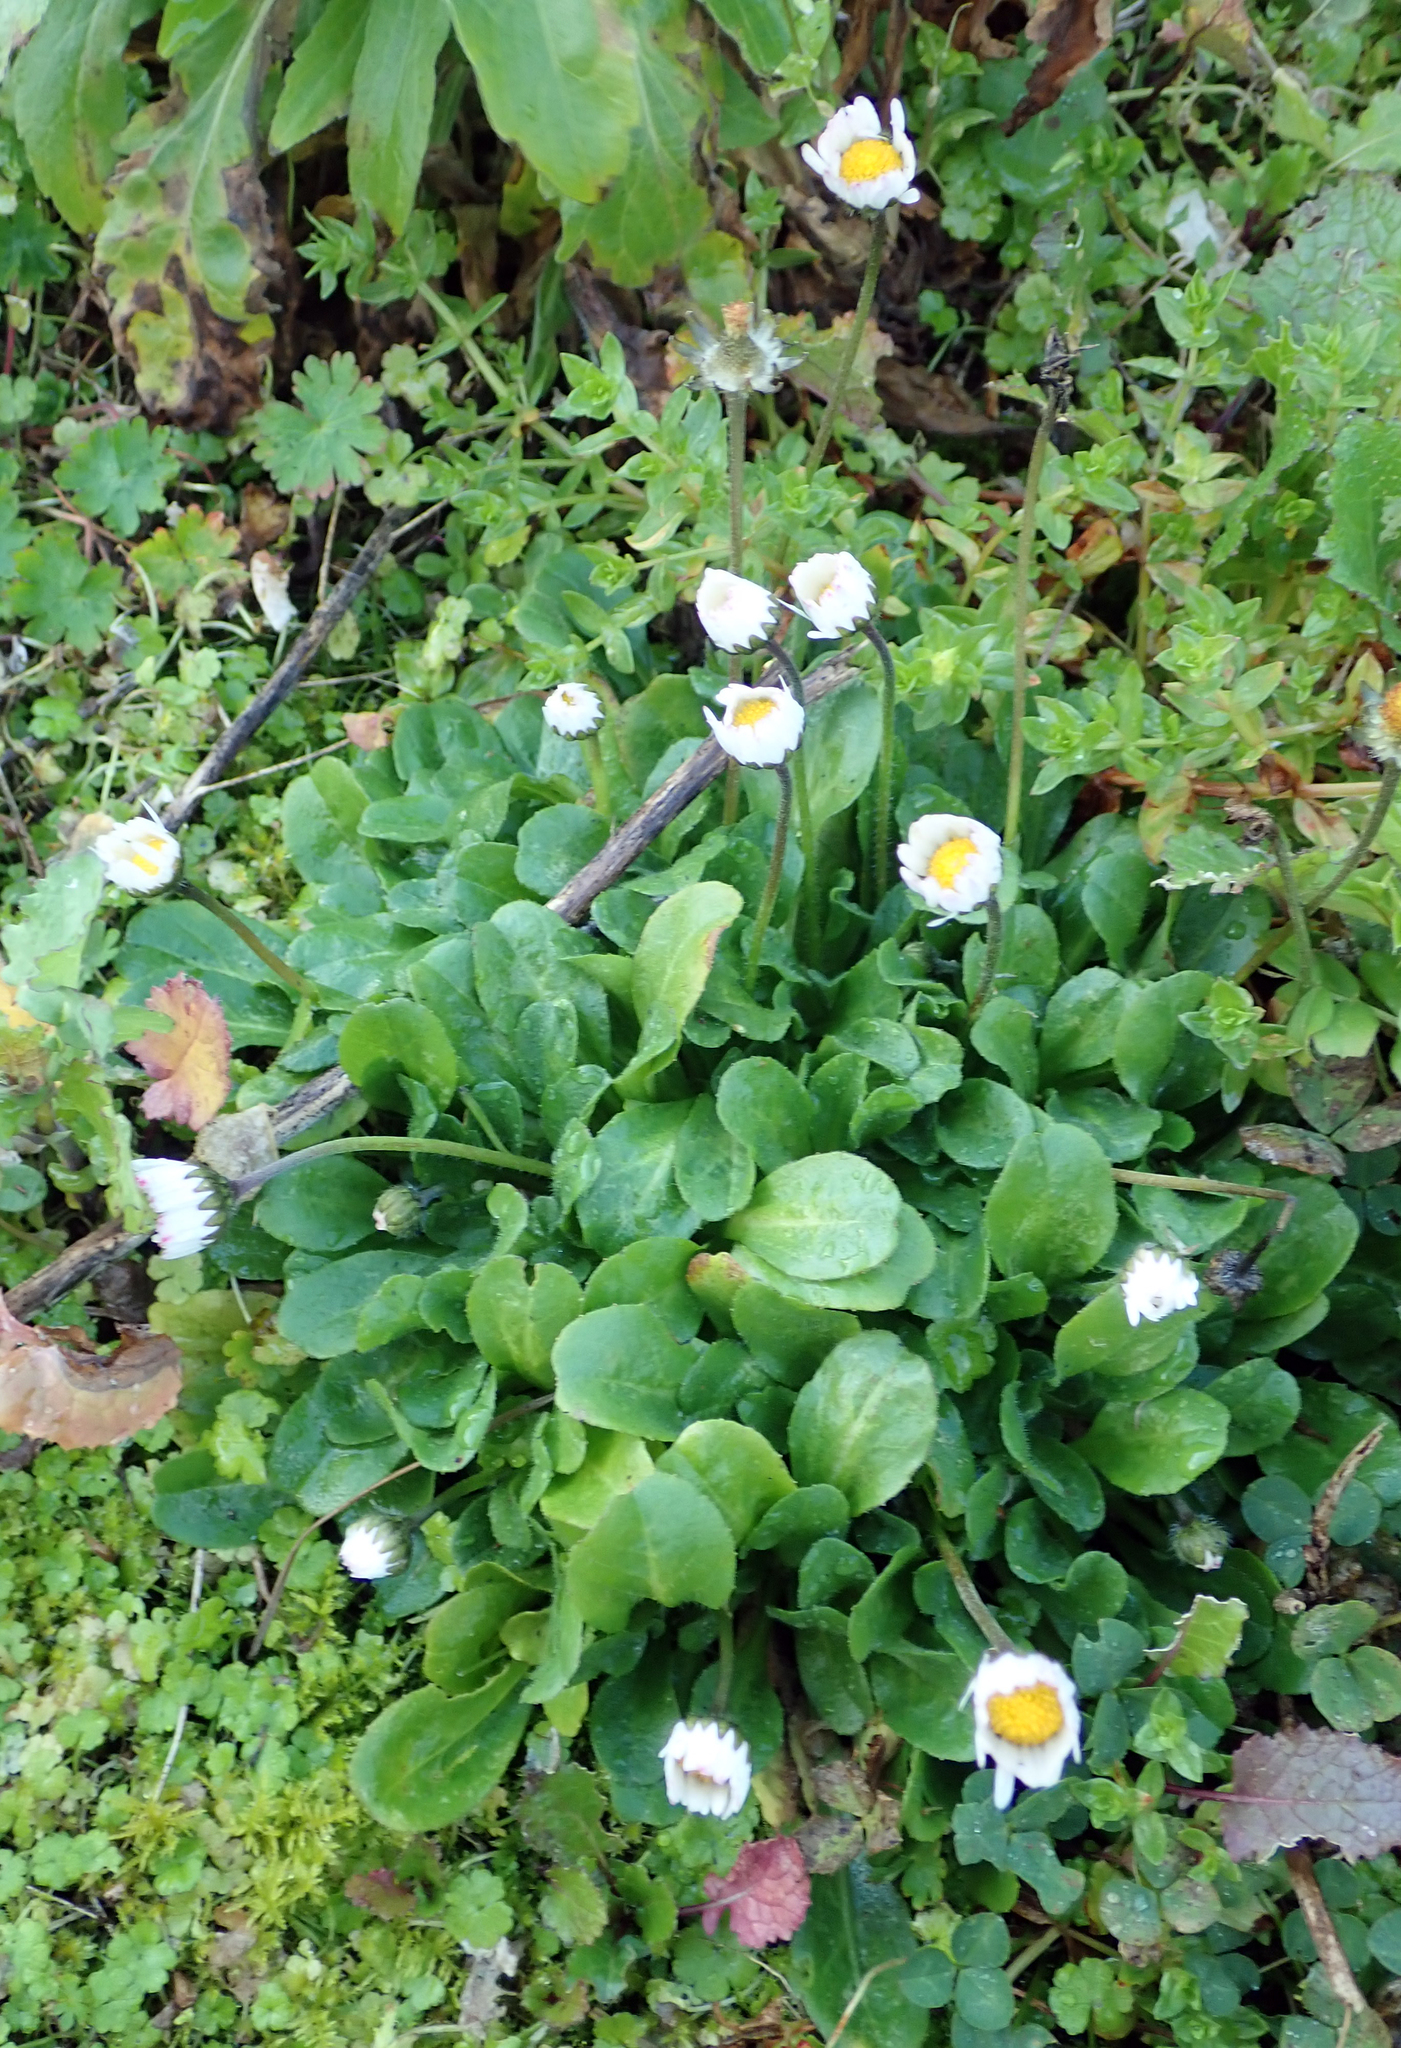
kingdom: Plantae
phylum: Tracheophyta
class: Magnoliopsida
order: Asterales
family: Asteraceae
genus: Bellis
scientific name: Bellis perennis
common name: Lawndaisy
